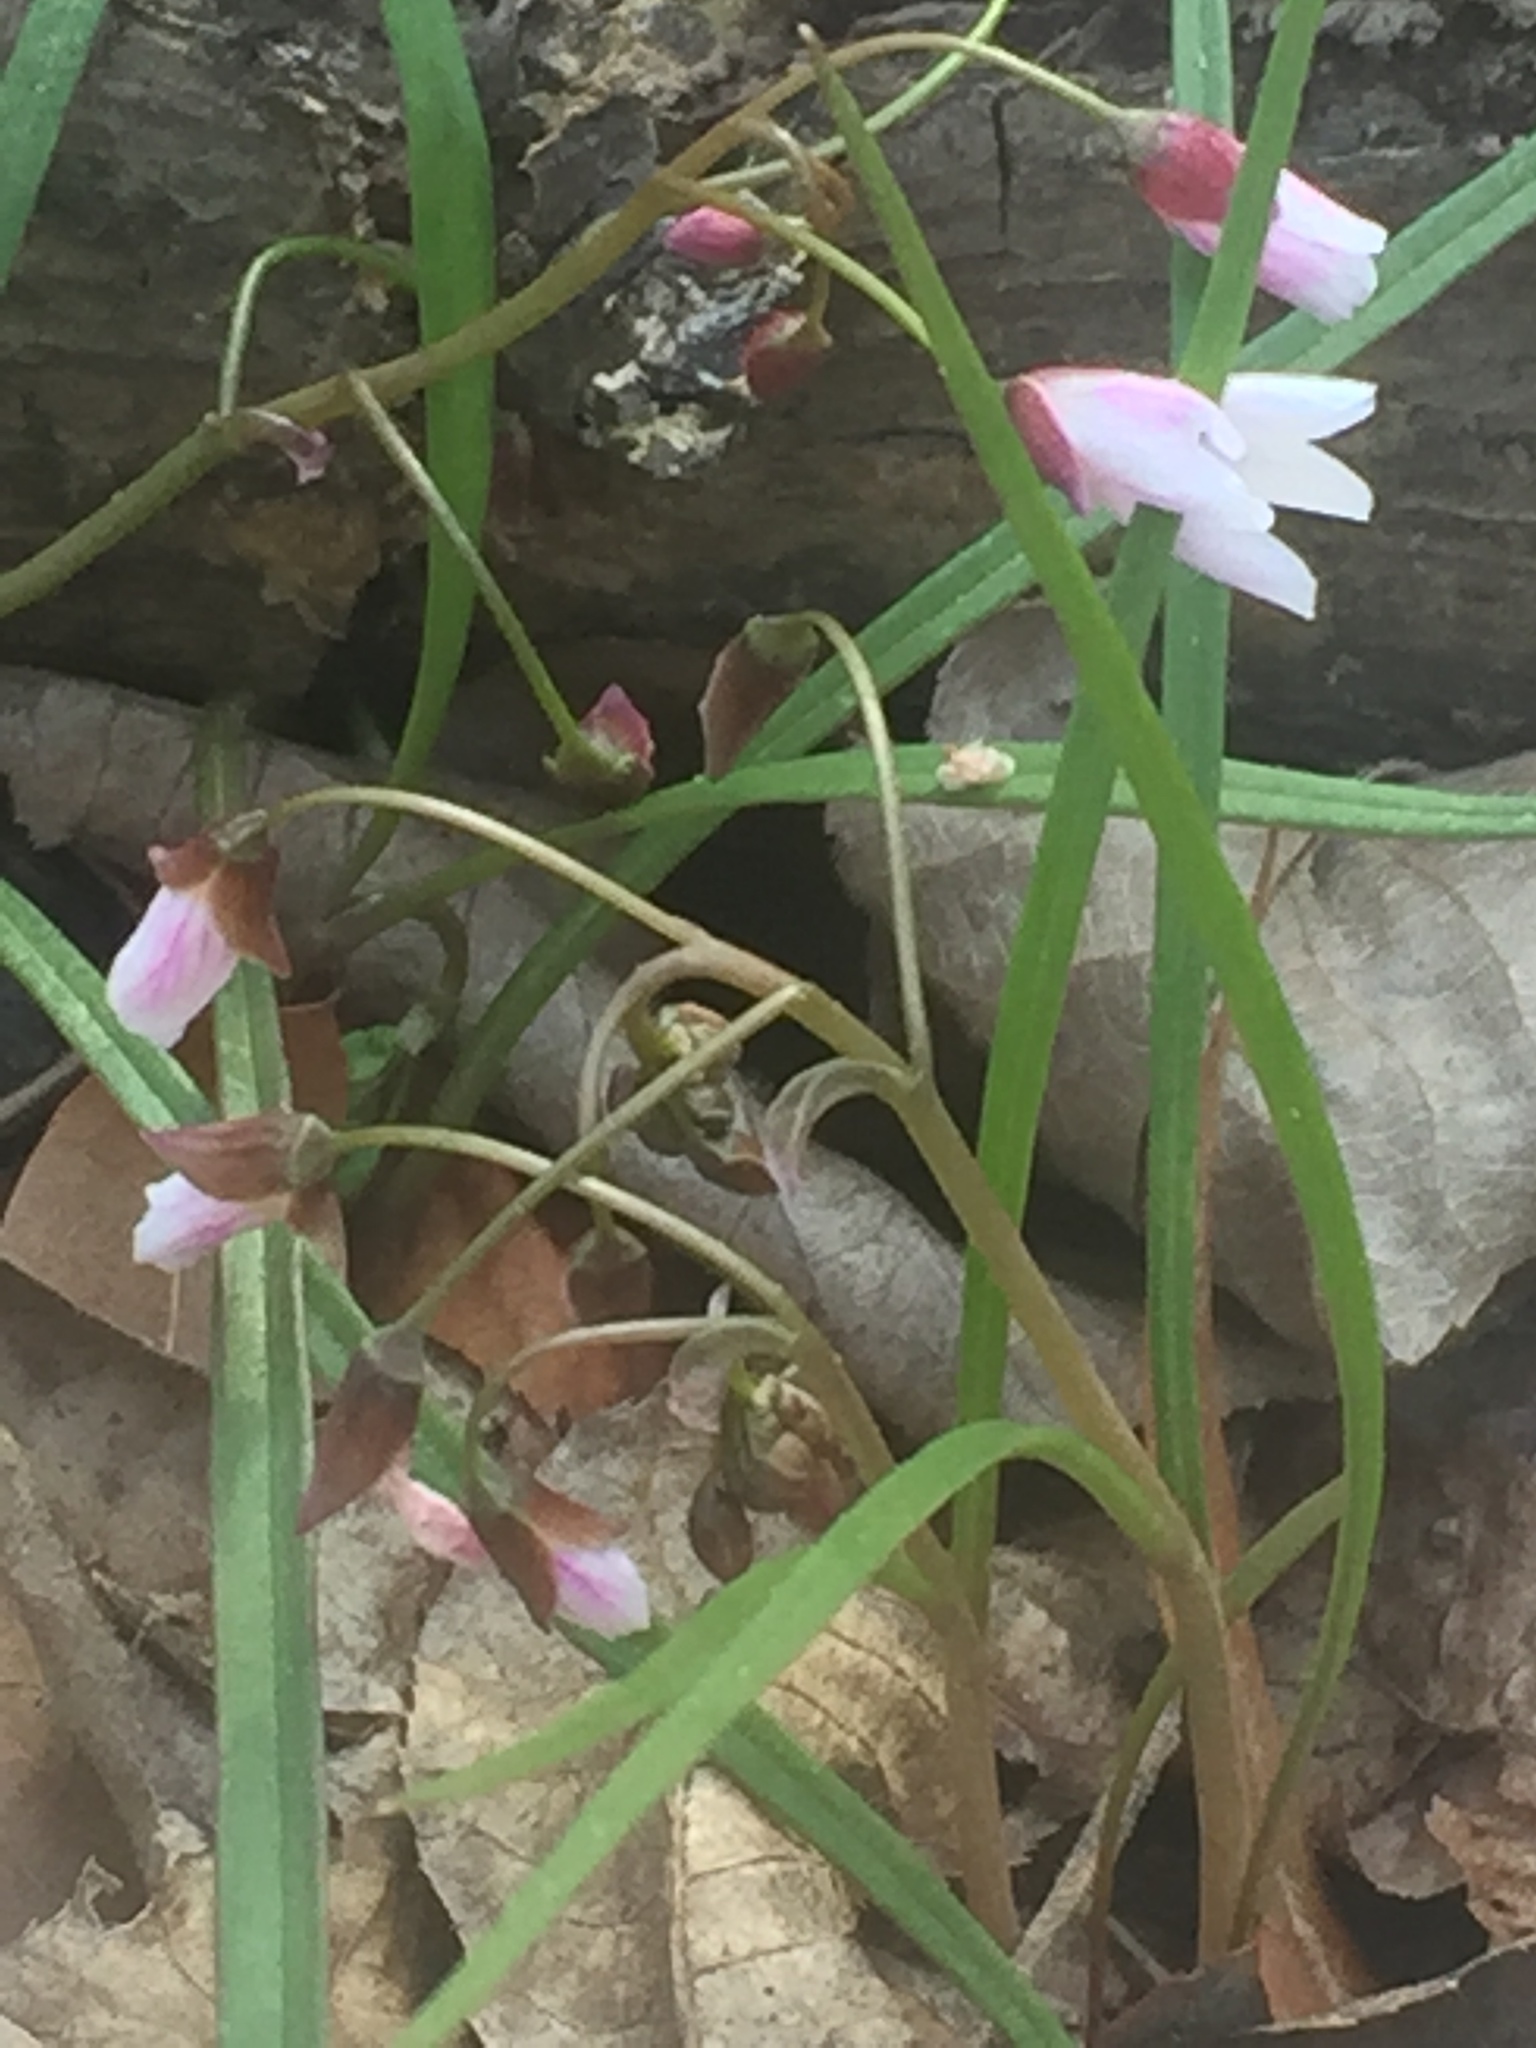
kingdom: Plantae
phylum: Tracheophyta
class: Magnoliopsida
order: Caryophyllales
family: Montiaceae
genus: Claytonia
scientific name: Claytonia virginica
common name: Virginia springbeauty
